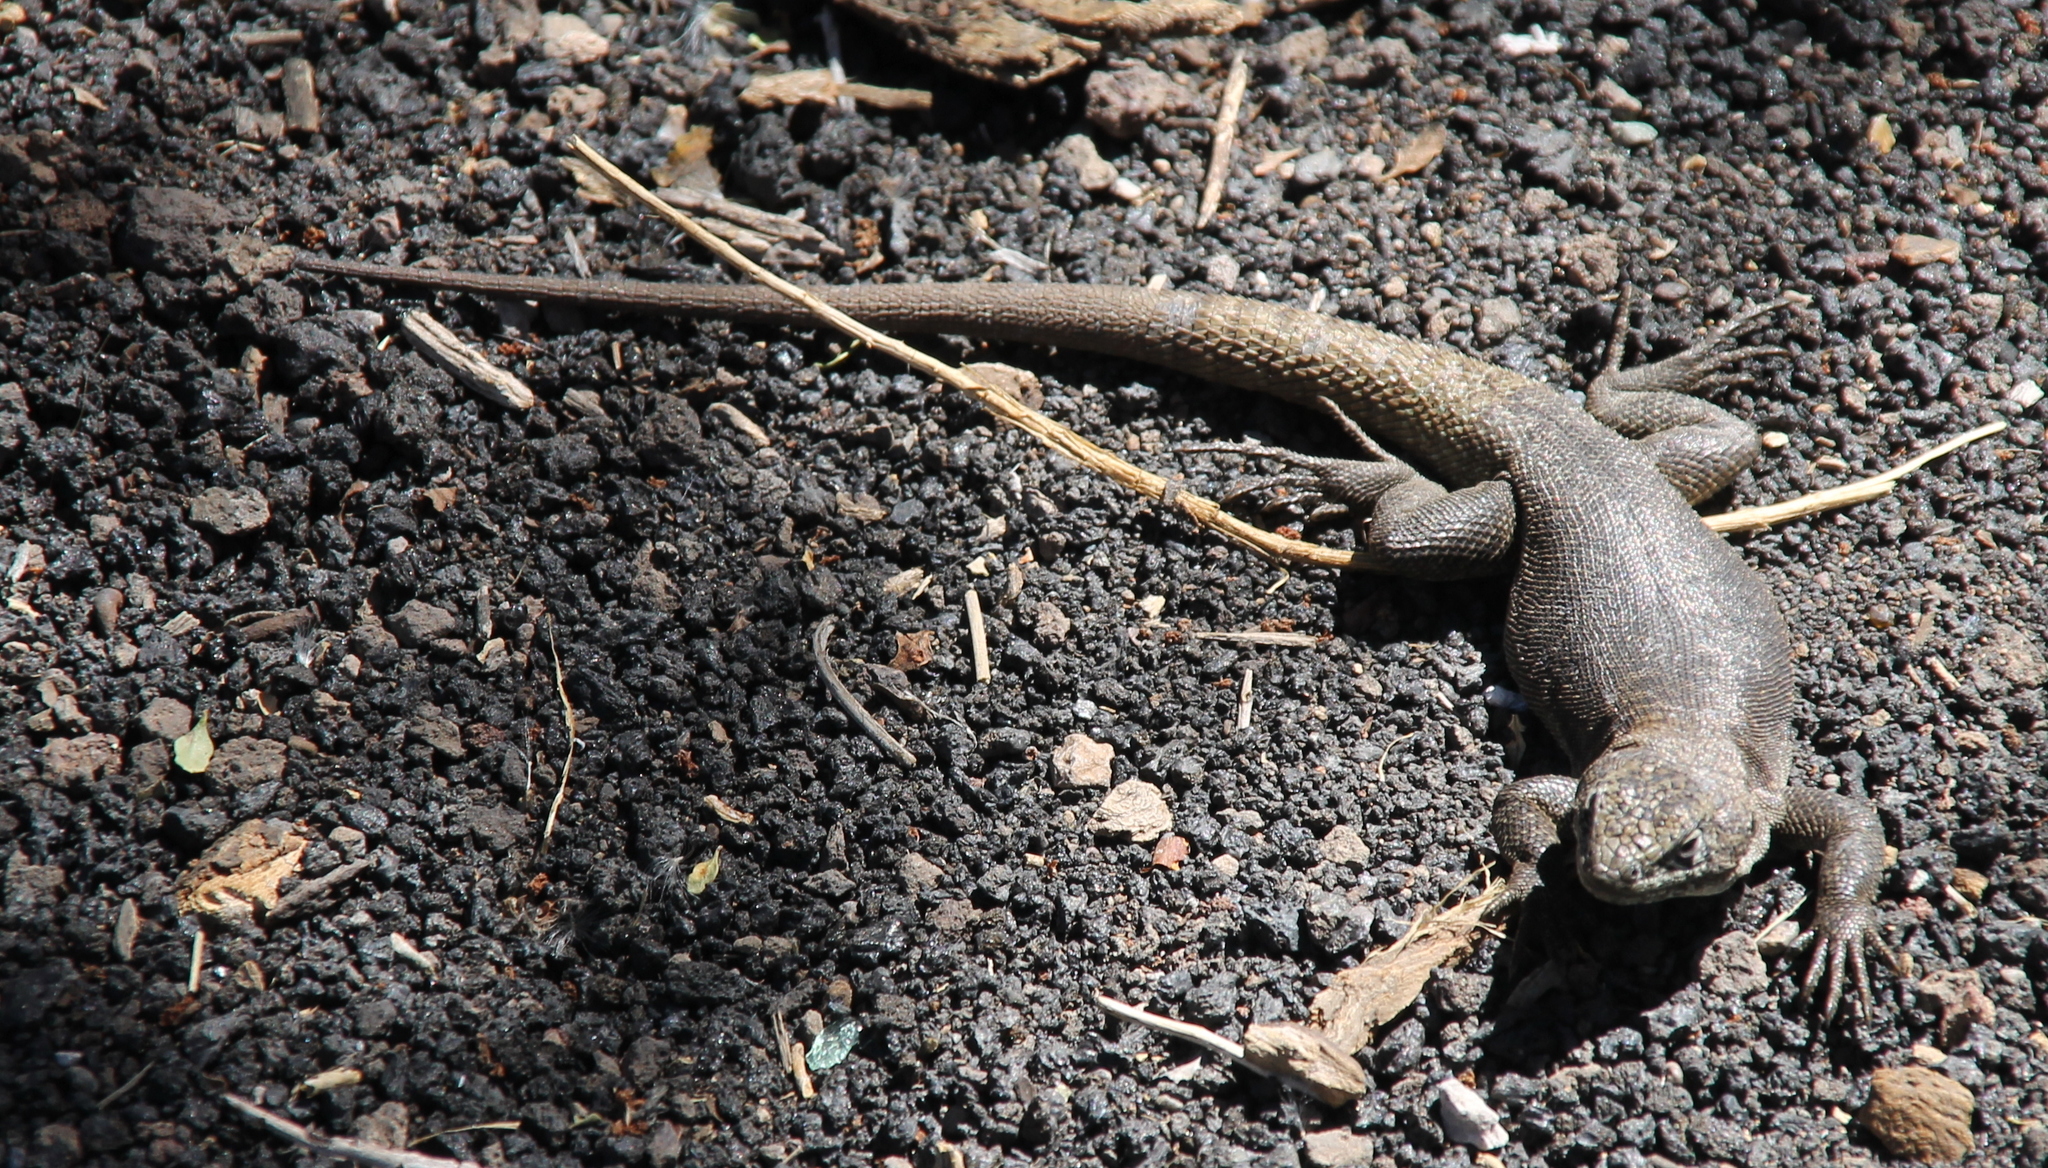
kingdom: Animalia
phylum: Chordata
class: Squamata
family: Liolaemidae
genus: Liolaemus
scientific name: Liolaemus austromendocinus
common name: Austromendocino tree iguana
